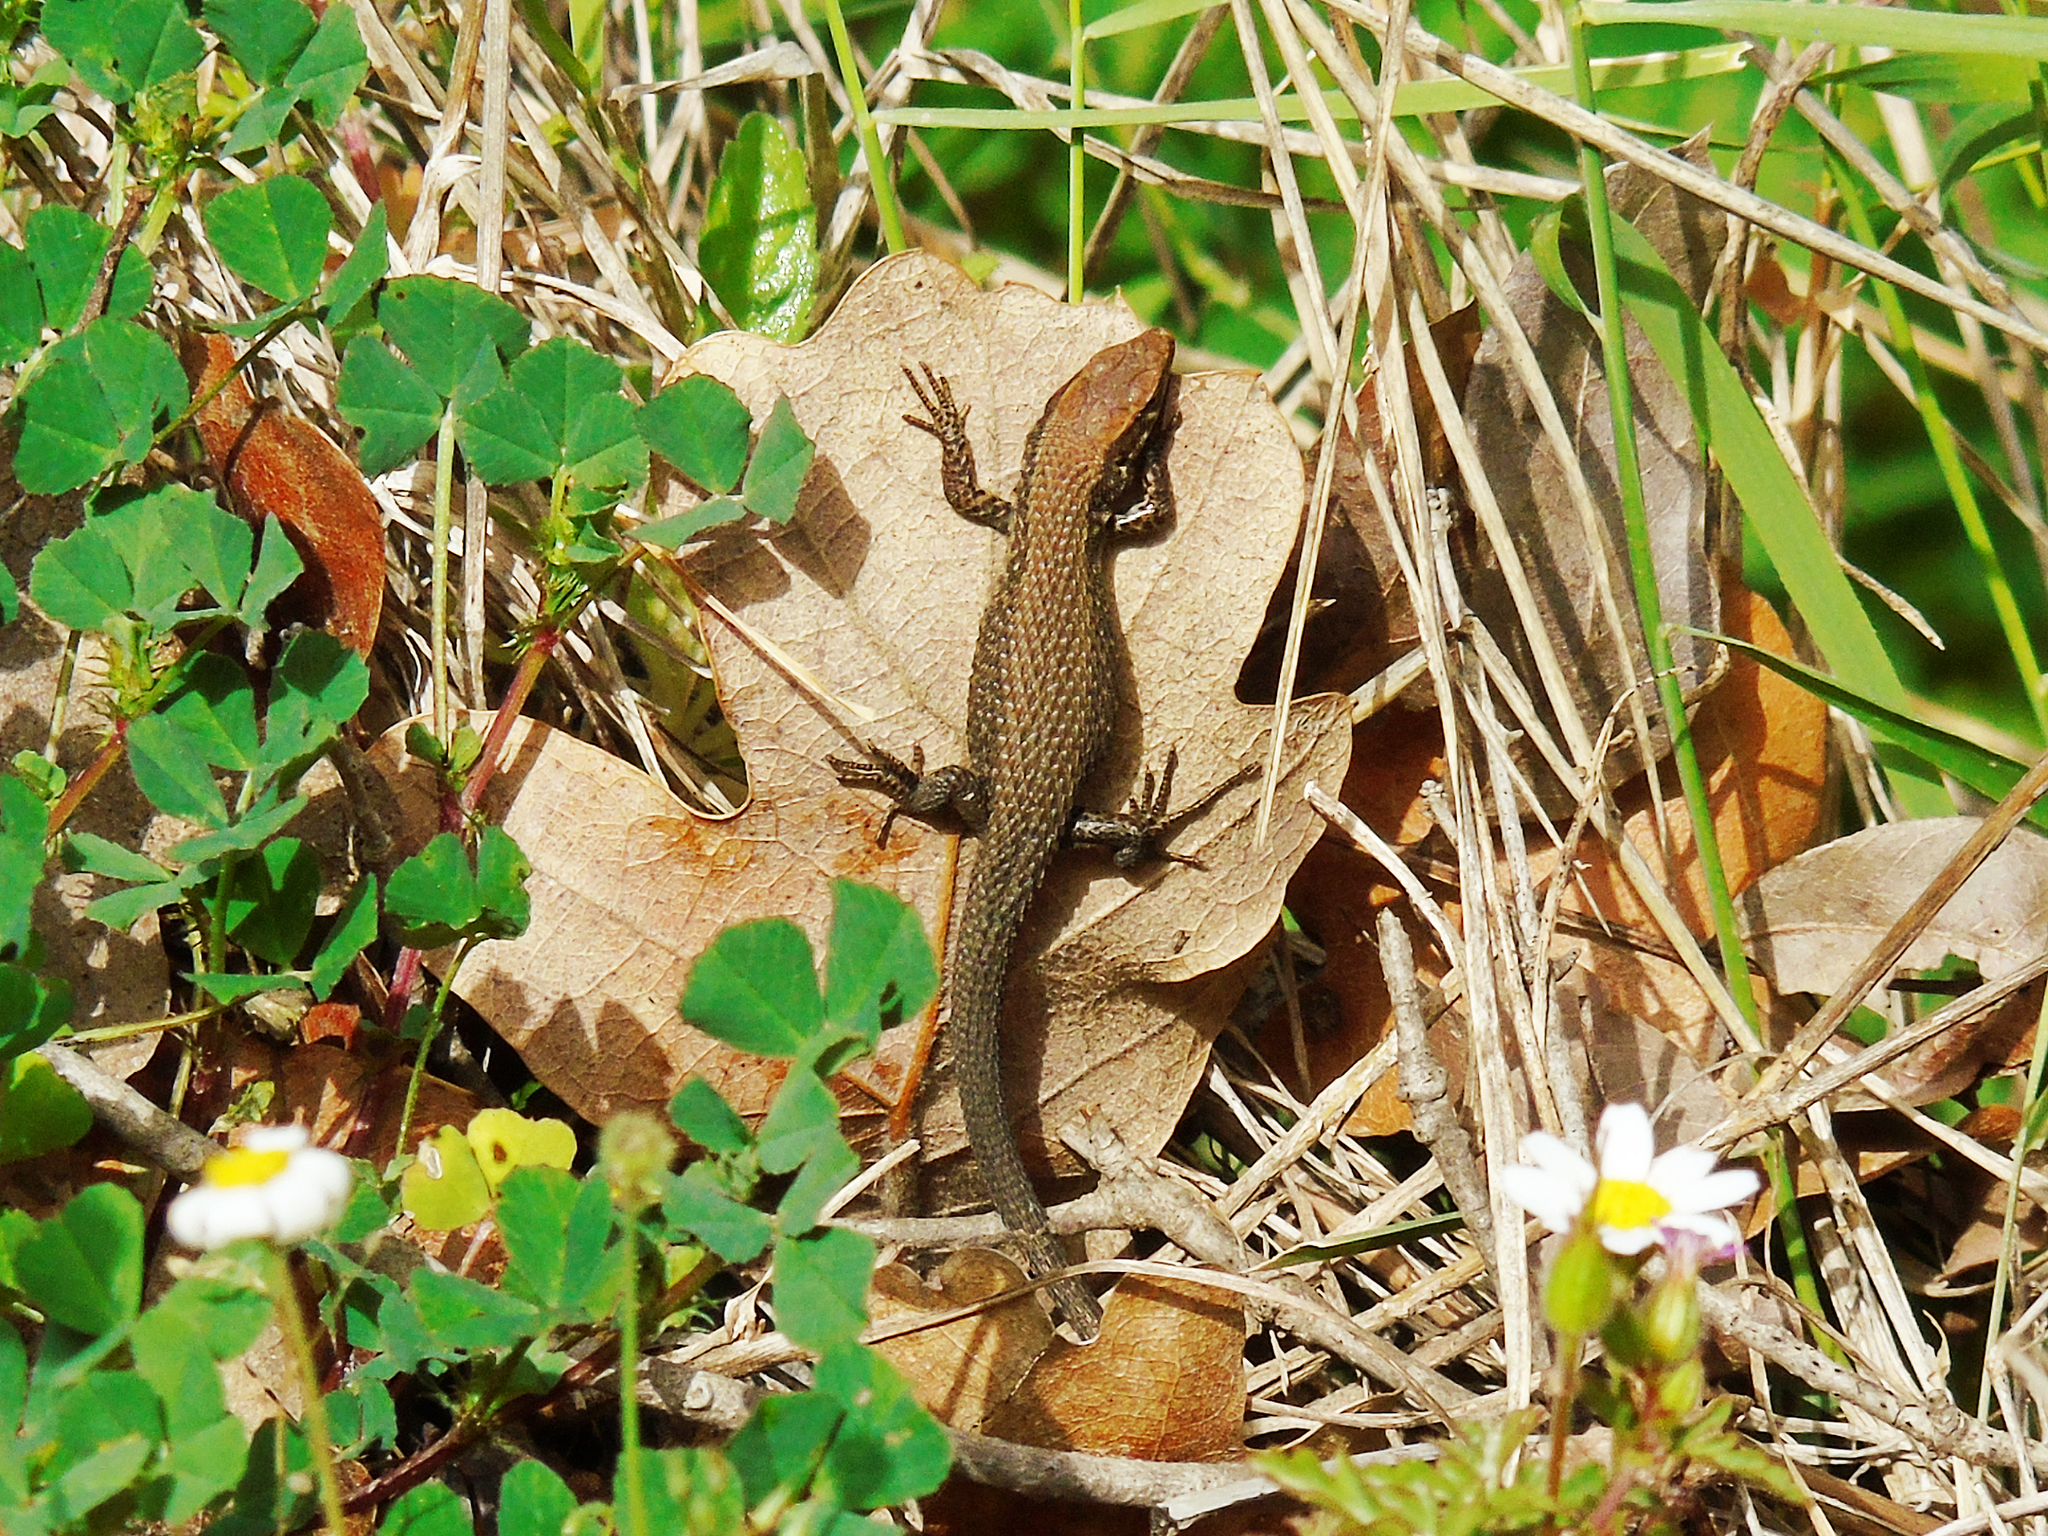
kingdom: Animalia
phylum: Chordata
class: Squamata
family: Lacertidae
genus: Algyroides
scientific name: Algyroides moreoticus
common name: Greek algyroides
